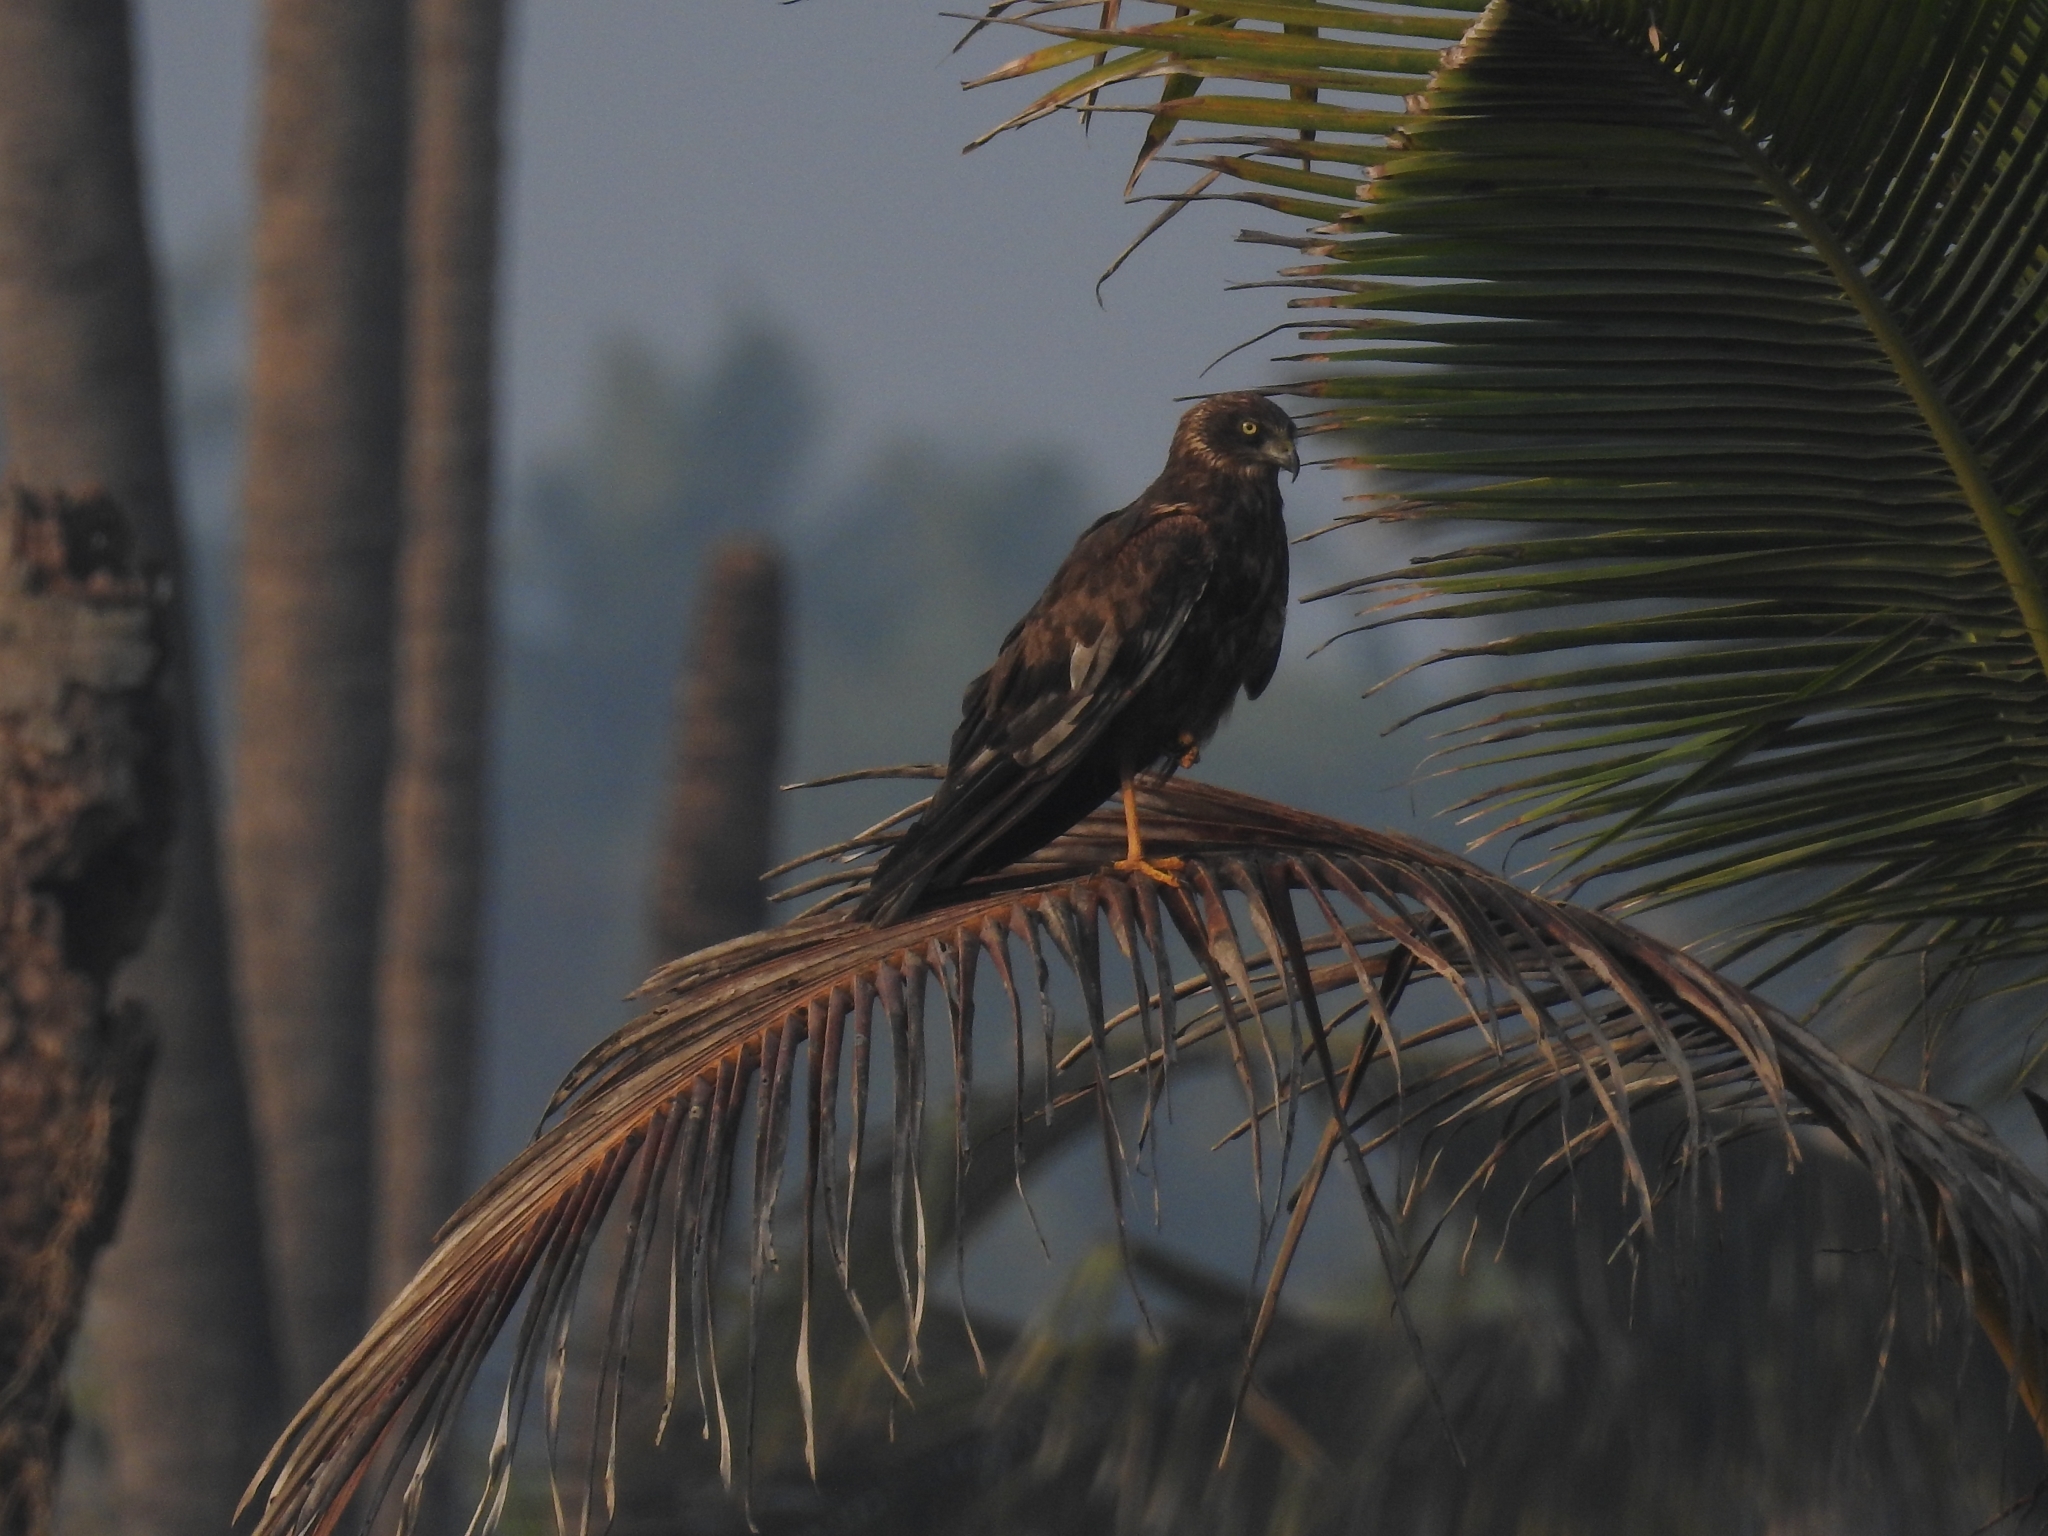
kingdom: Animalia
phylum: Chordata
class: Aves
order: Accipitriformes
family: Accipitridae
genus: Circus
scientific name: Circus aeruginosus
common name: Western marsh harrier
